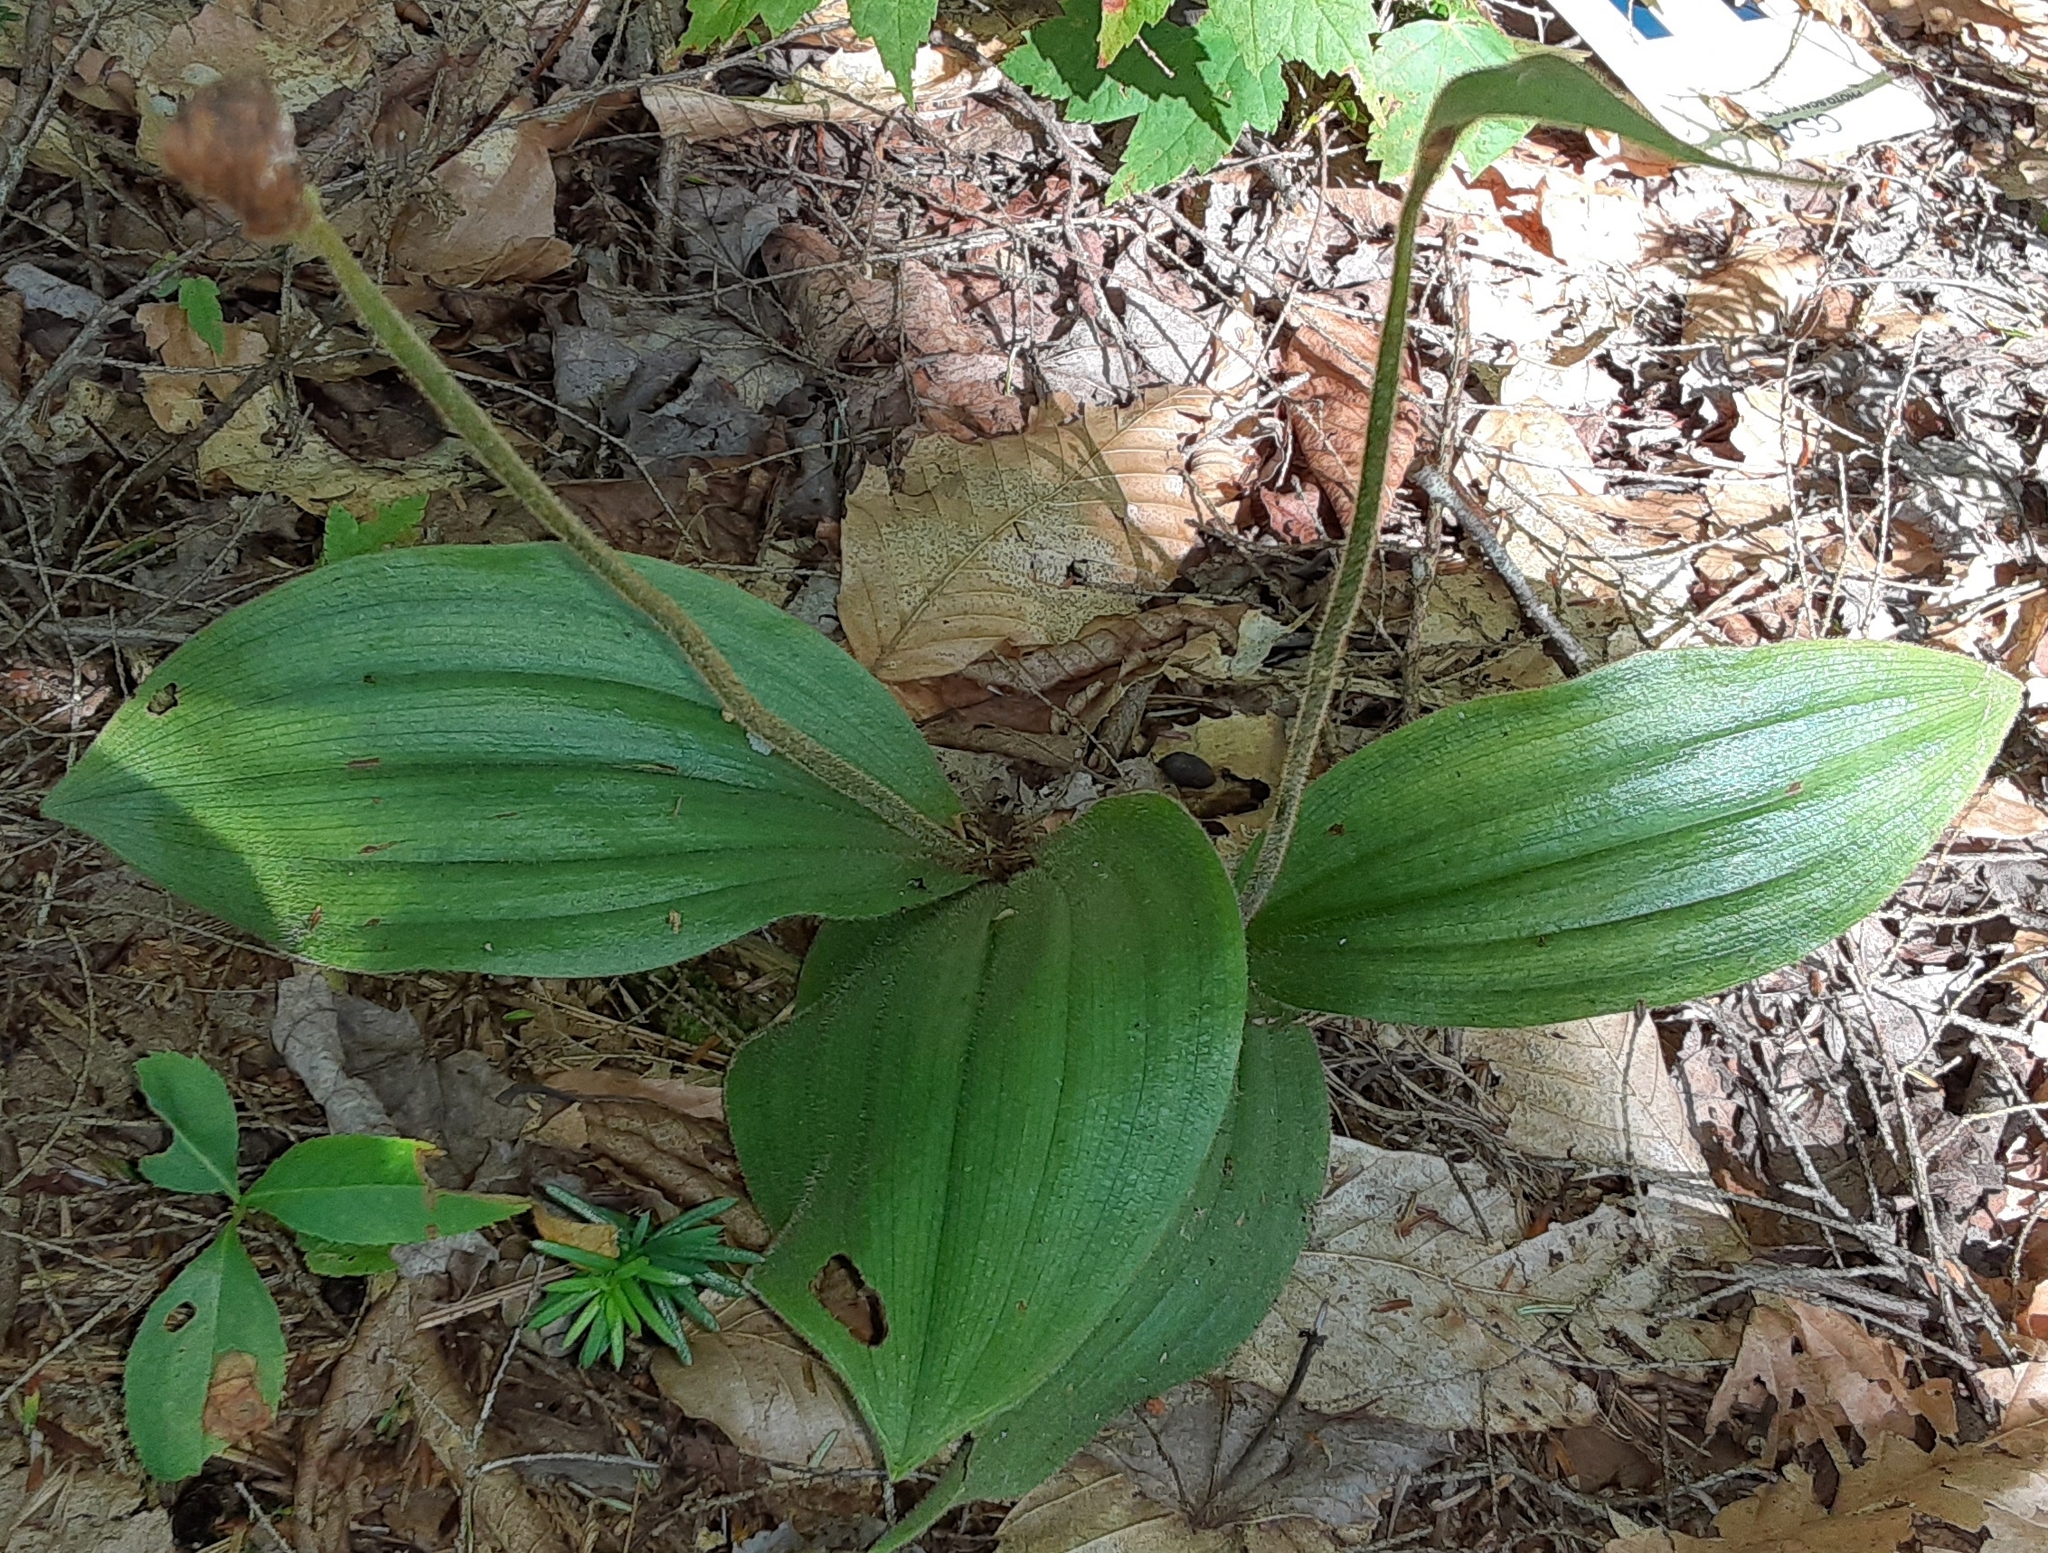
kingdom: Plantae
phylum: Tracheophyta
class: Liliopsida
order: Asparagales
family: Orchidaceae
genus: Cypripedium
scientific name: Cypripedium acaule
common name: Pink lady's-slipper
